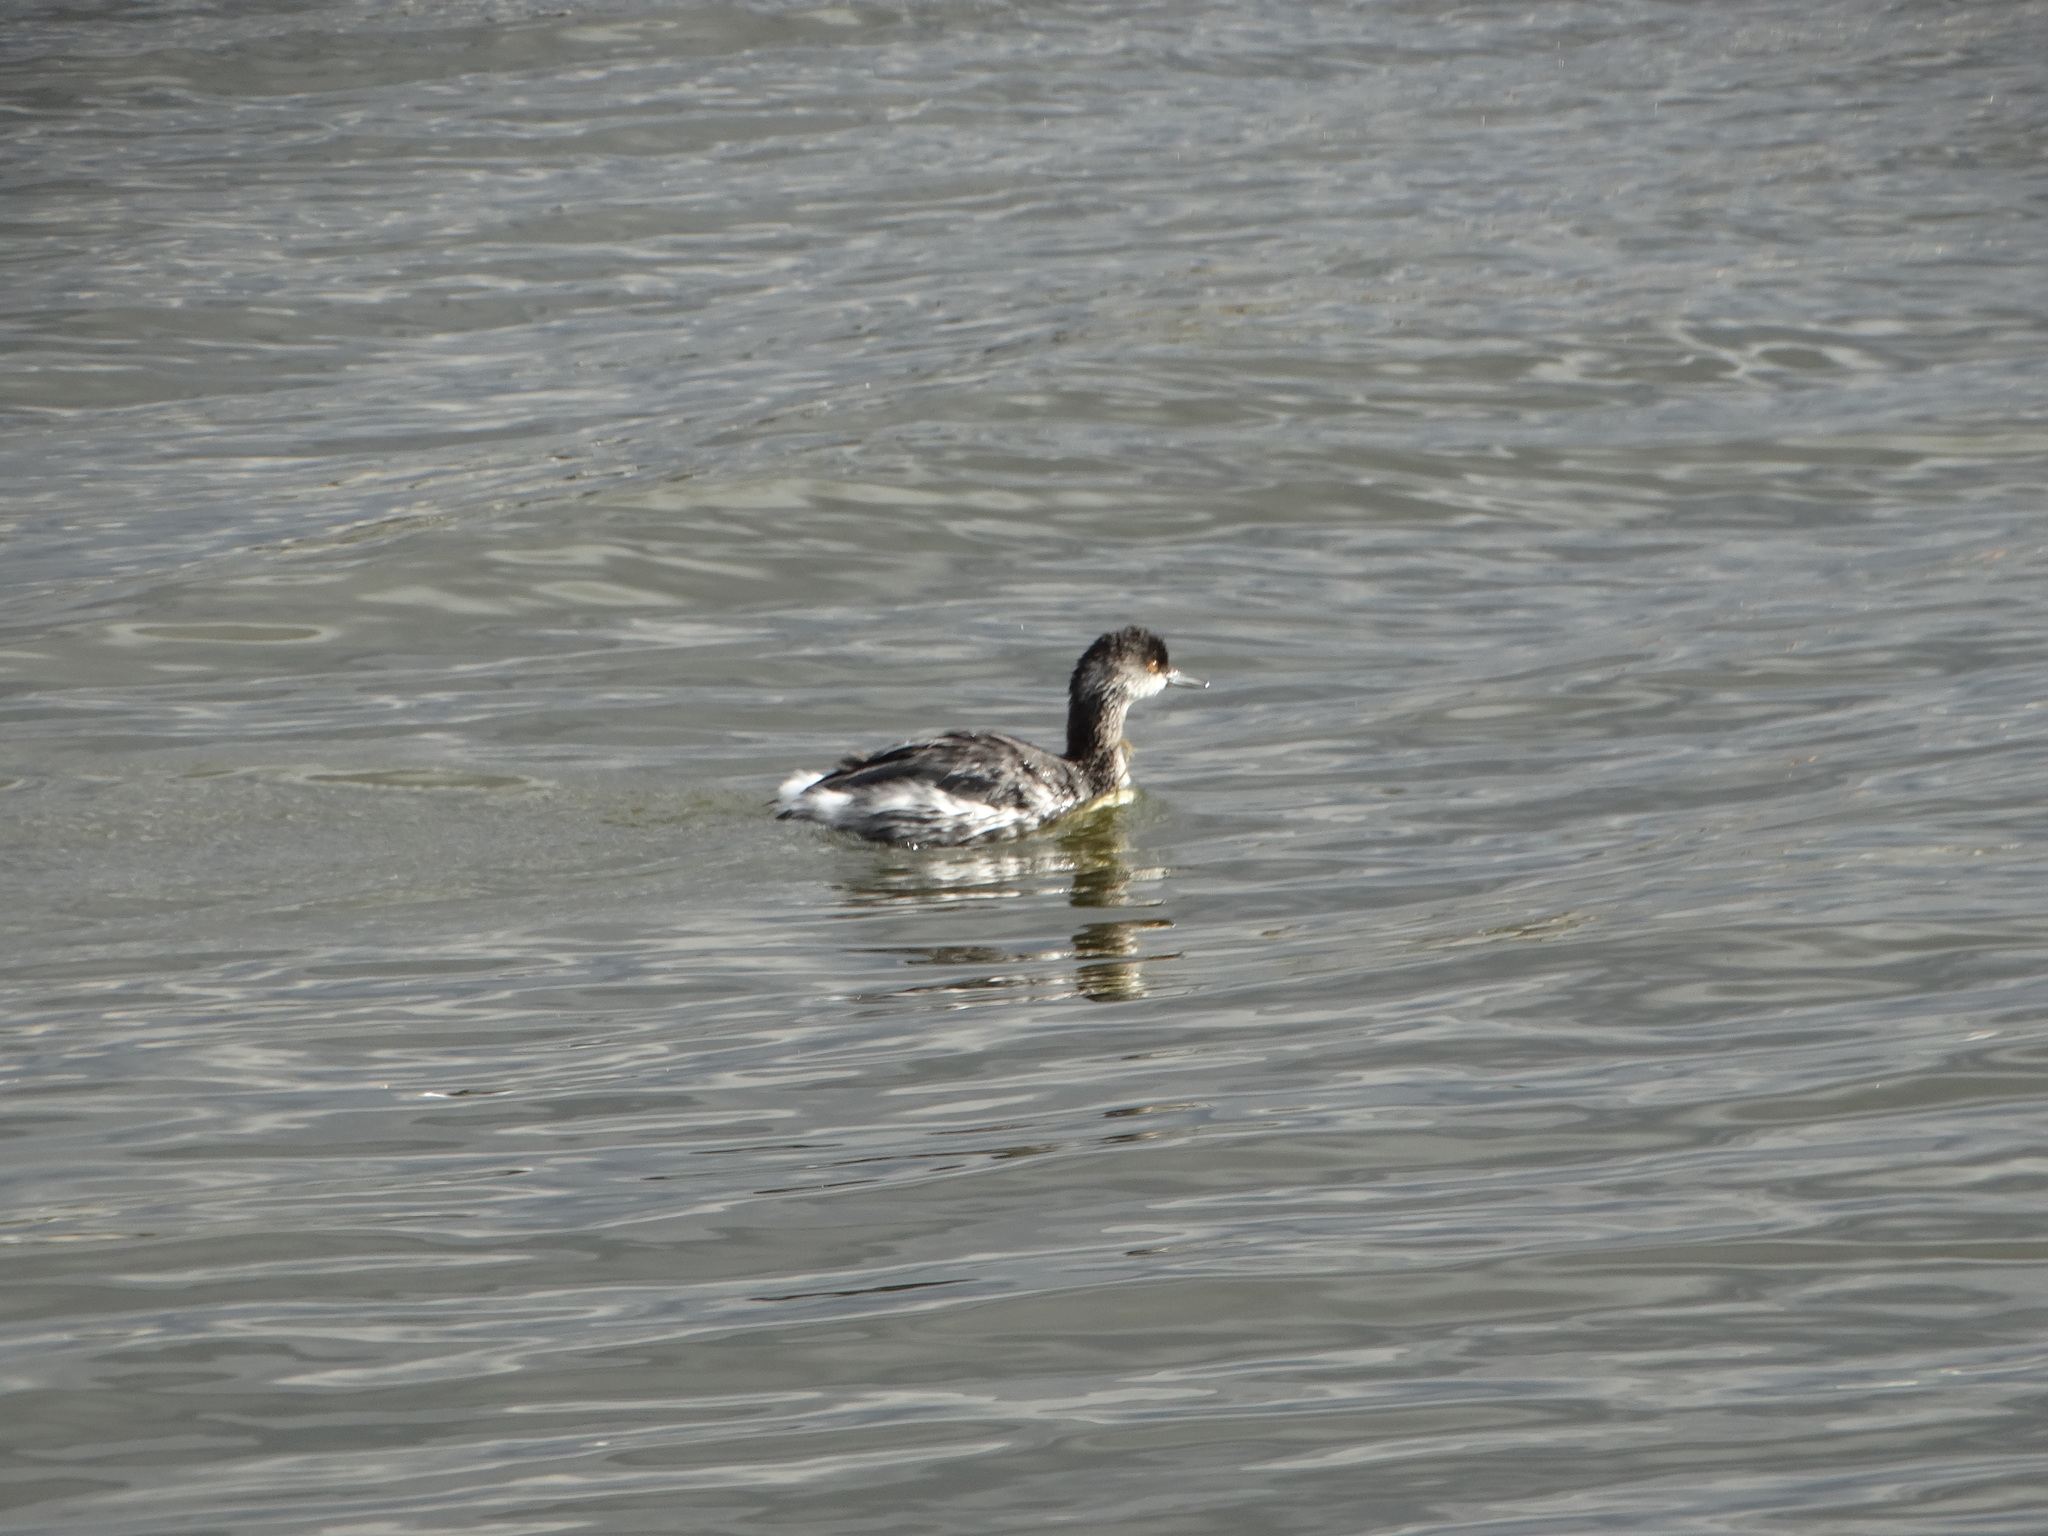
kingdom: Animalia
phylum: Chordata
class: Aves
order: Podicipediformes
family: Podicipedidae
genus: Podiceps
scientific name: Podiceps nigricollis
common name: Black-necked grebe
